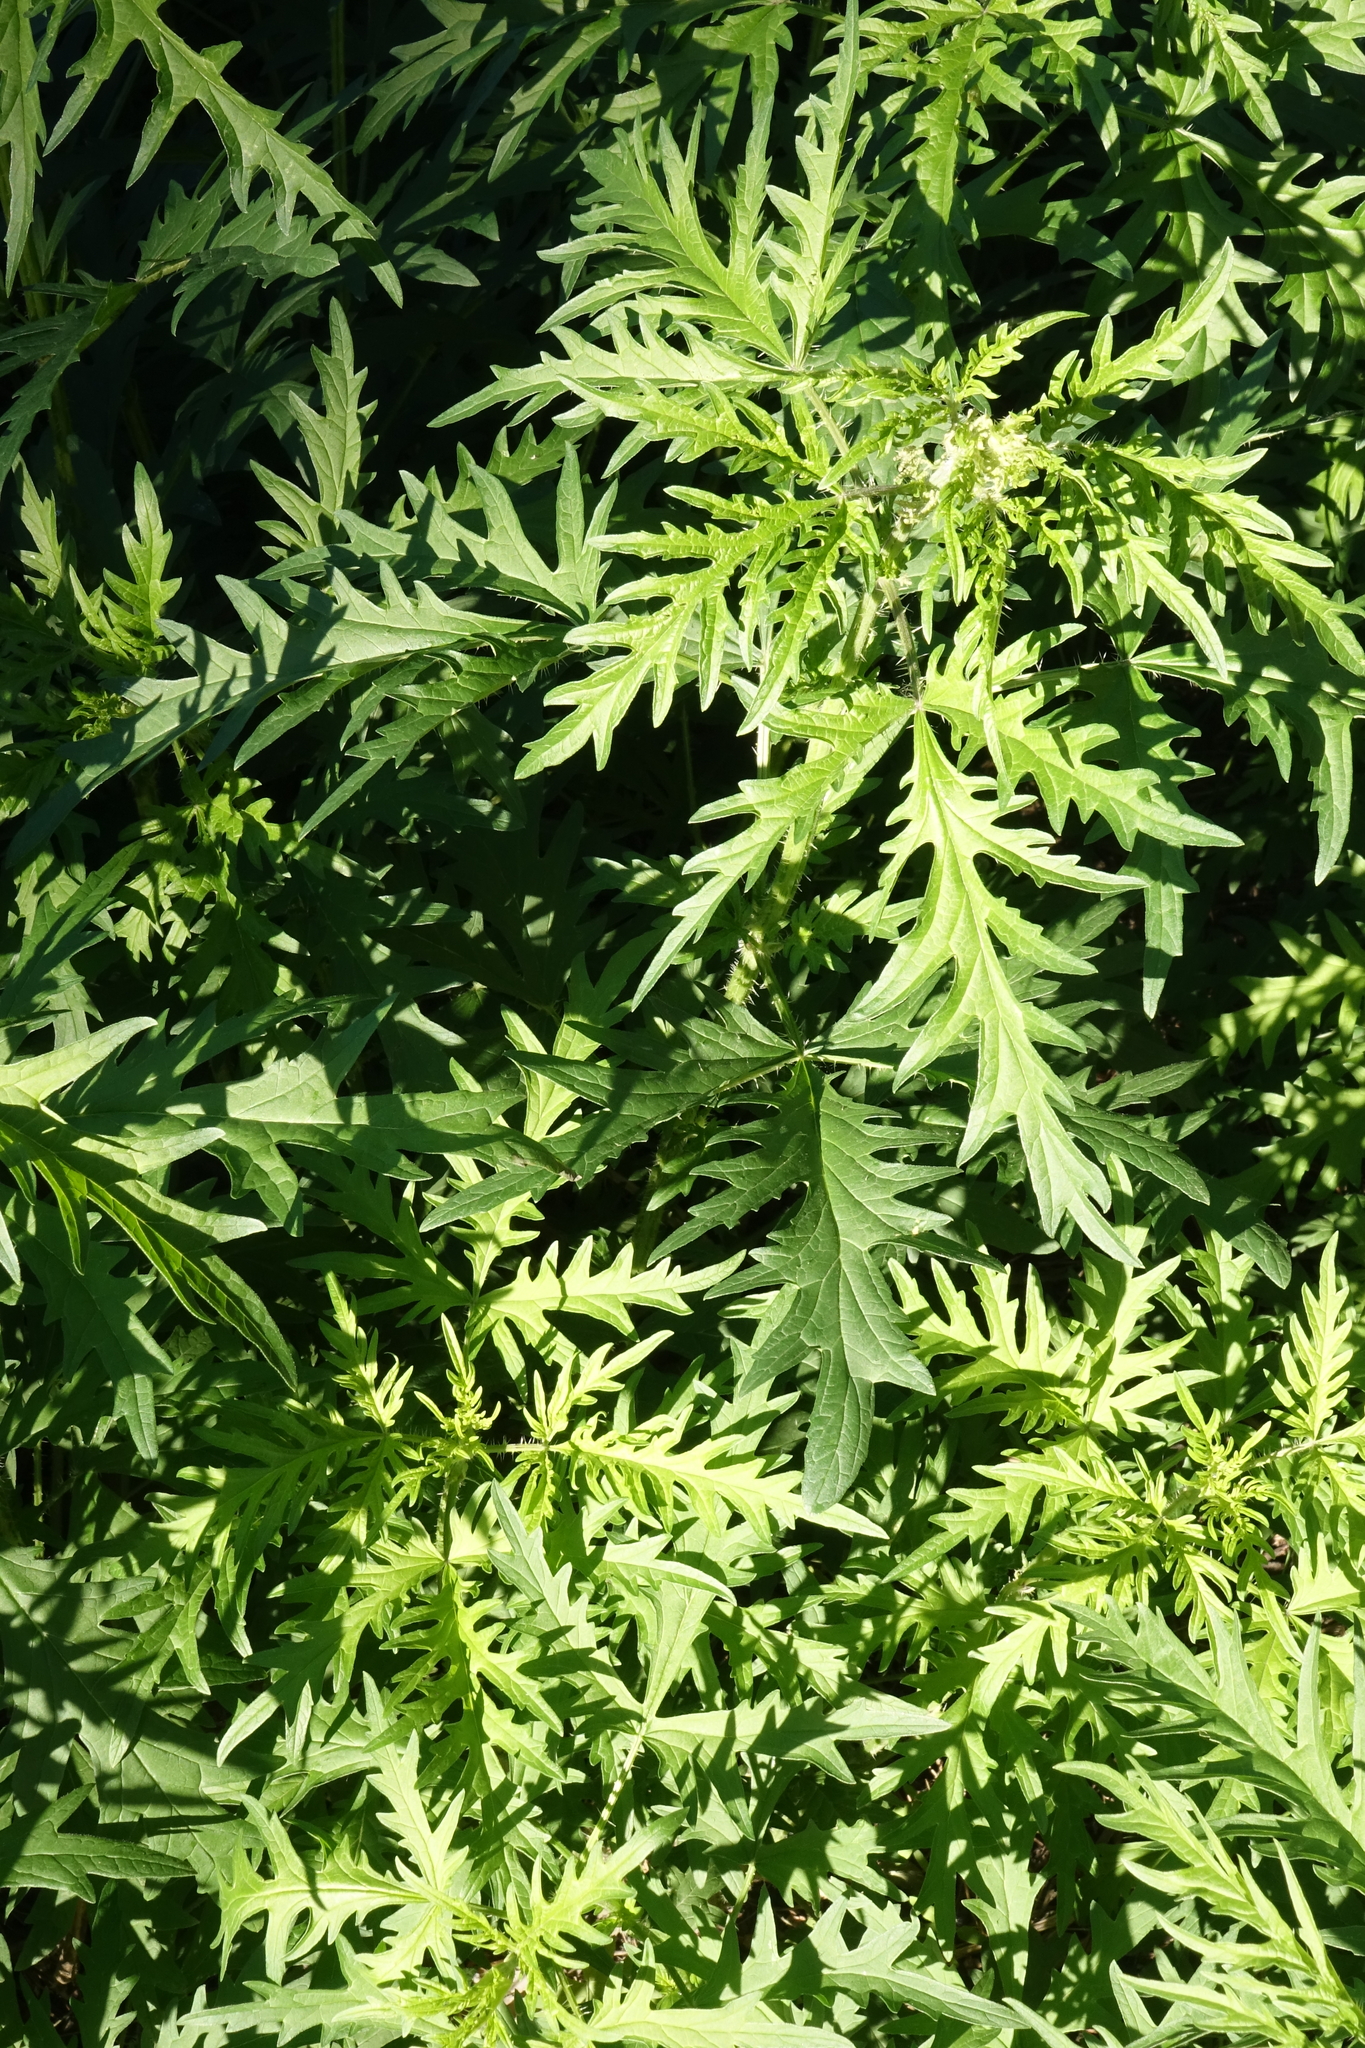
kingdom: Plantae
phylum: Tracheophyta
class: Magnoliopsida
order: Rosales
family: Urticaceae
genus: Urtica
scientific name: Urtica cannabina
